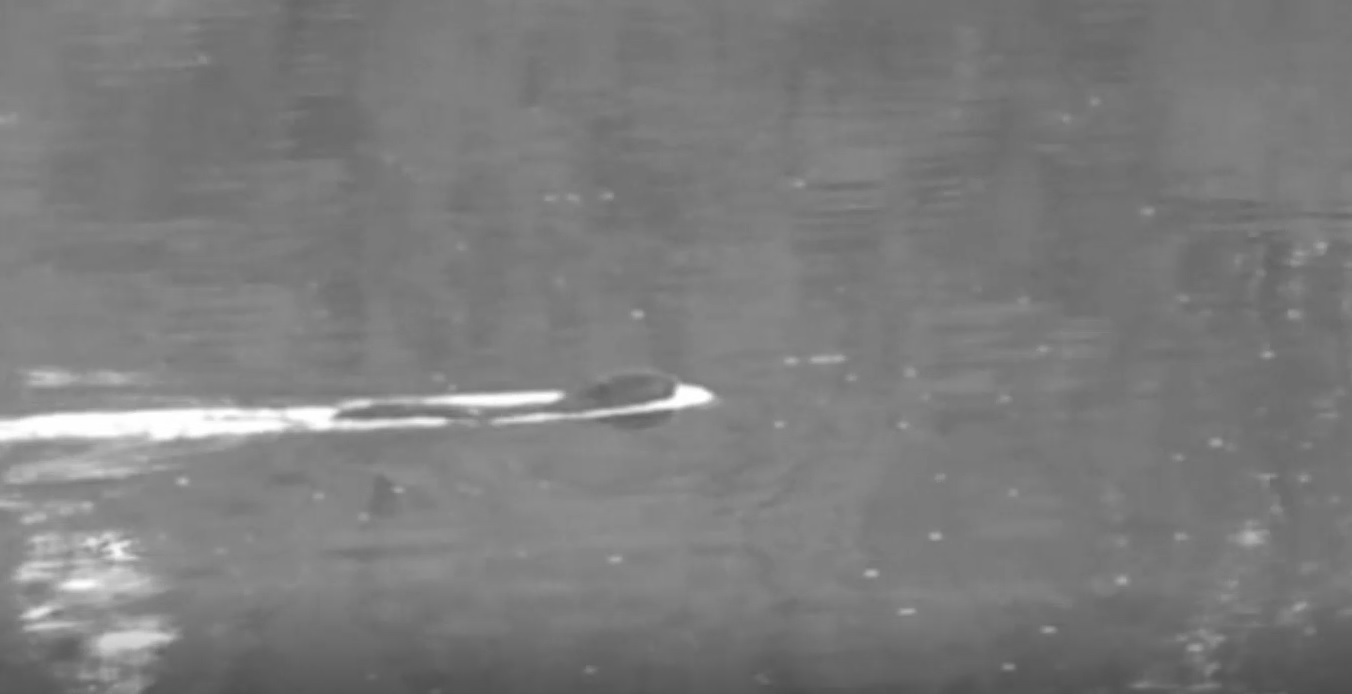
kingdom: Animalia
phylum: Chordata
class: Mammalia
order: Rodentia
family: Castoridae
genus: Castor
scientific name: Castor canadensis
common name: American beaver
